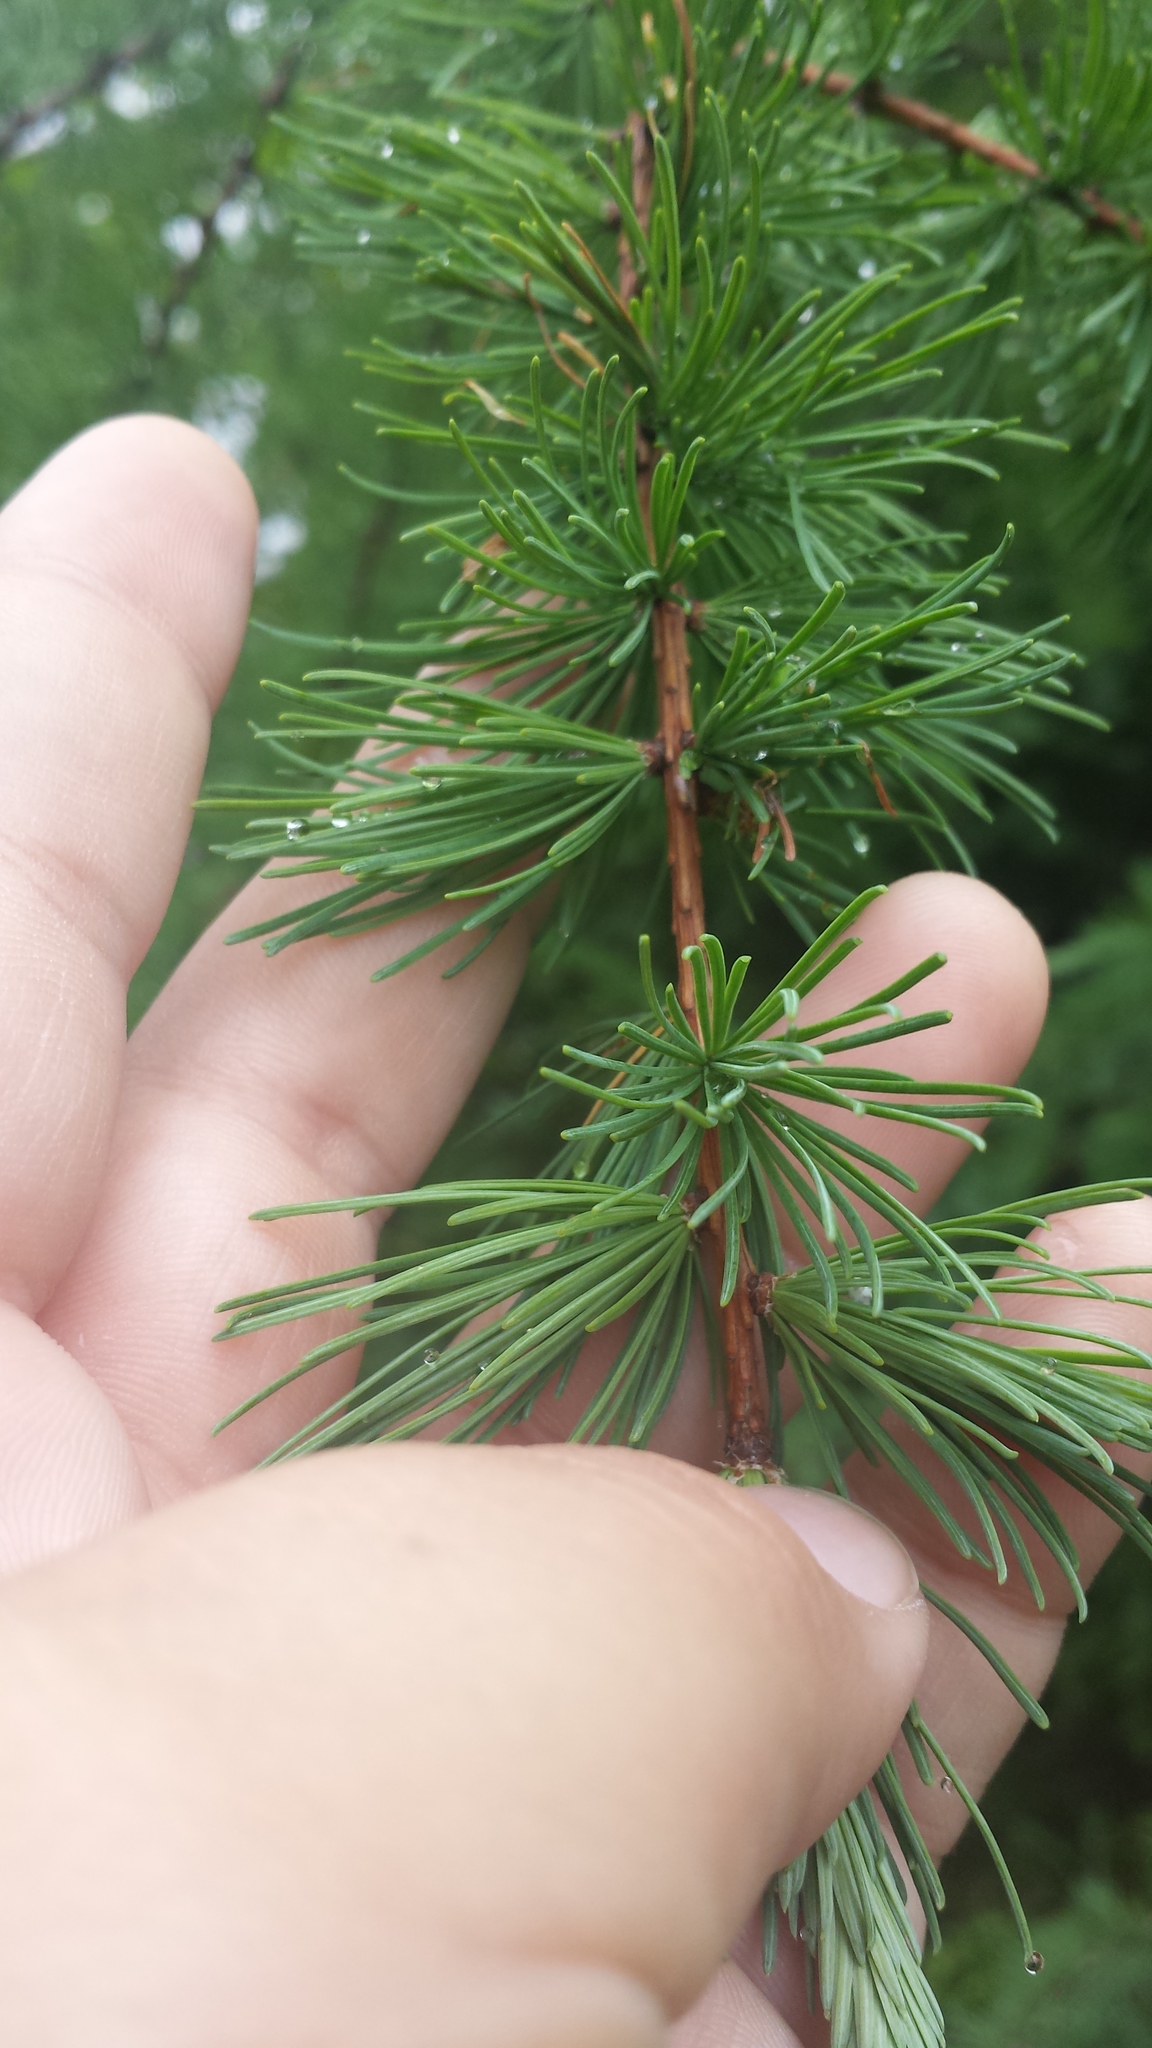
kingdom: Plantae
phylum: Tracheophyta
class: Pinopsida
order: Pinales
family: Pinaceae
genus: Larix
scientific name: Larix laricina
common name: American larch
